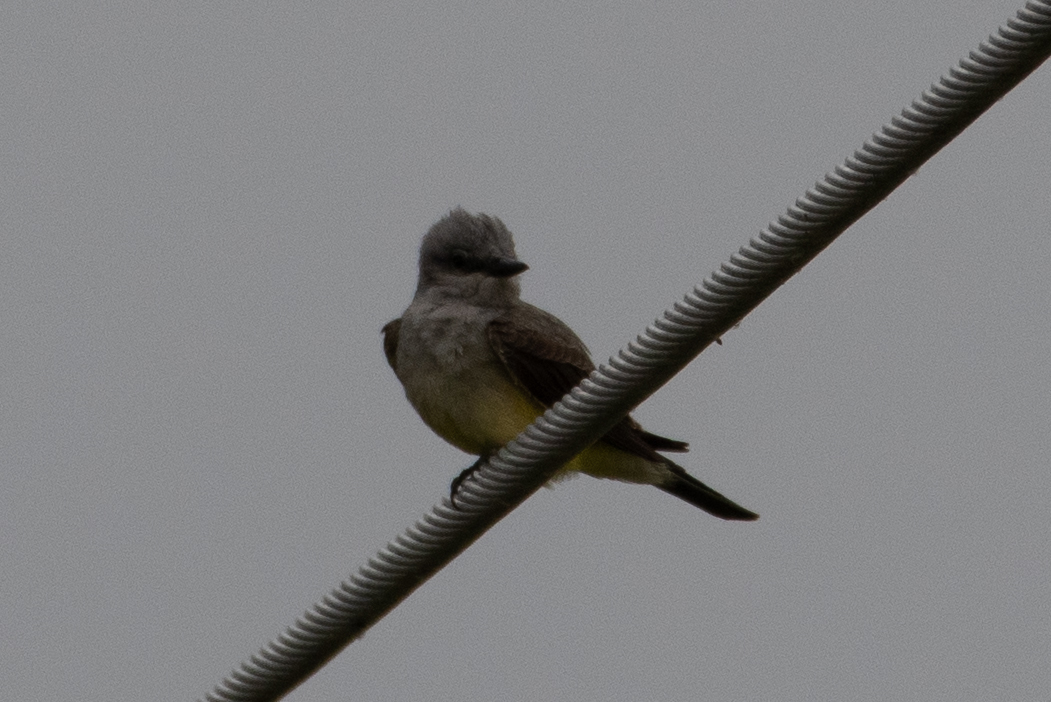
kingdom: Animalia
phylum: Chordata
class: Aves
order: Passeriformes
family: Tyrannidae
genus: Tyrannus
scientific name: Tyrannus verticalis
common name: Western kingbird
